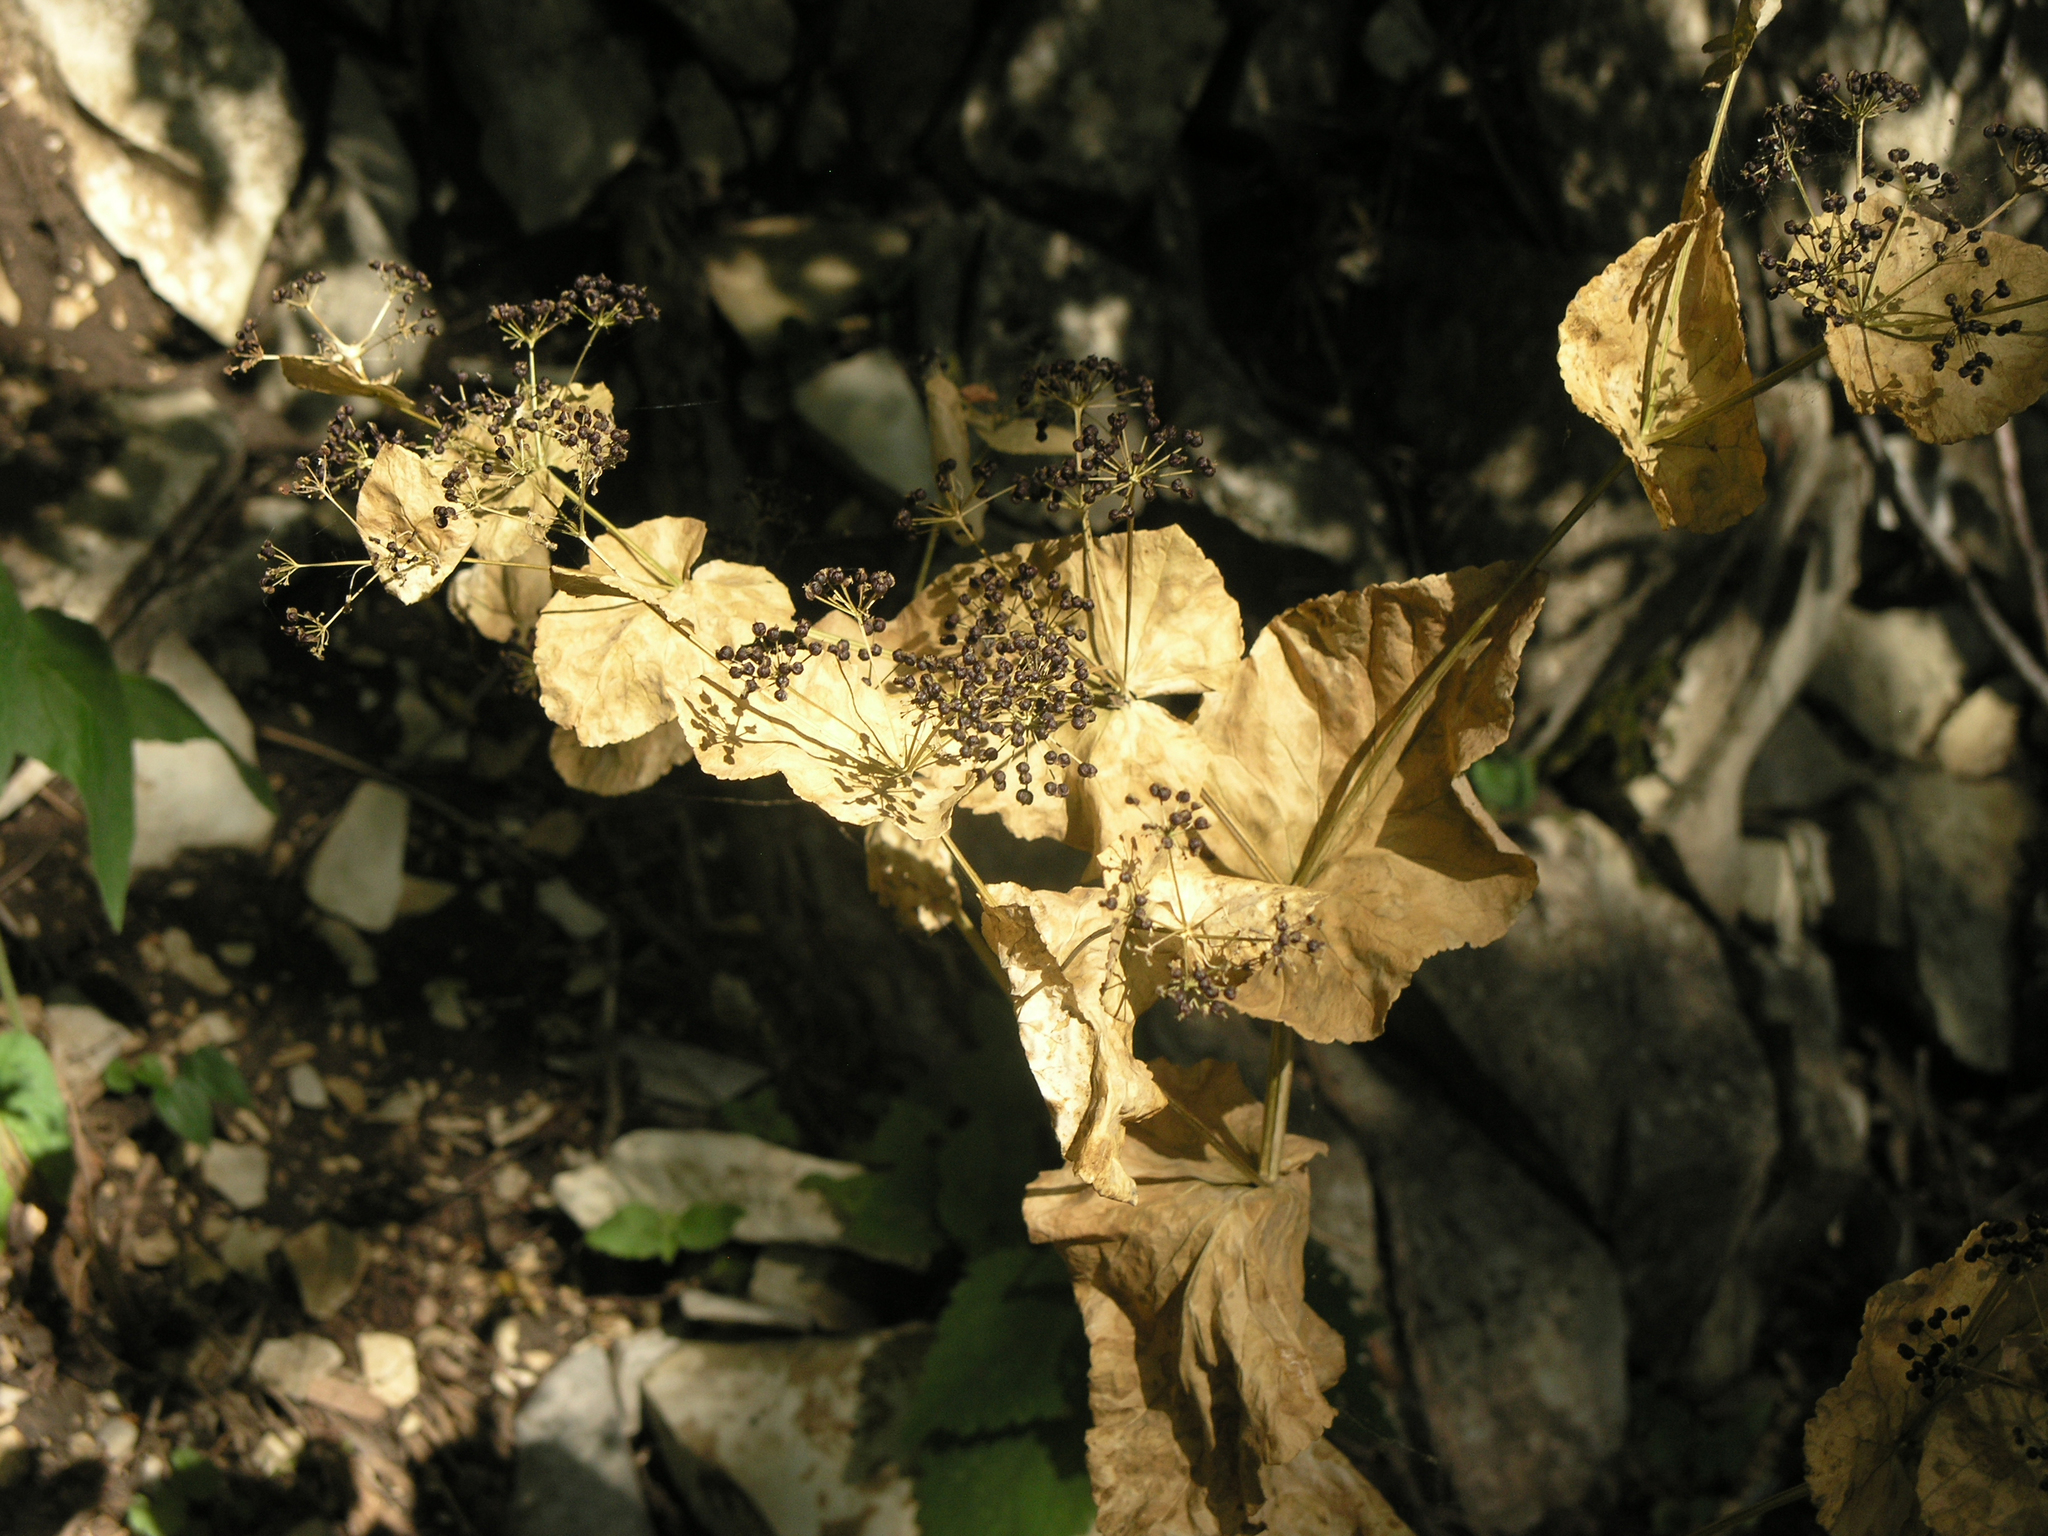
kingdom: Plantae
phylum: Tracheophyta
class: Magnoliopsida
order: Apiales
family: Apiaceae
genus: Smyrnium
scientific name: Smyrnium perfoliatum
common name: Perfoliate alexanders
